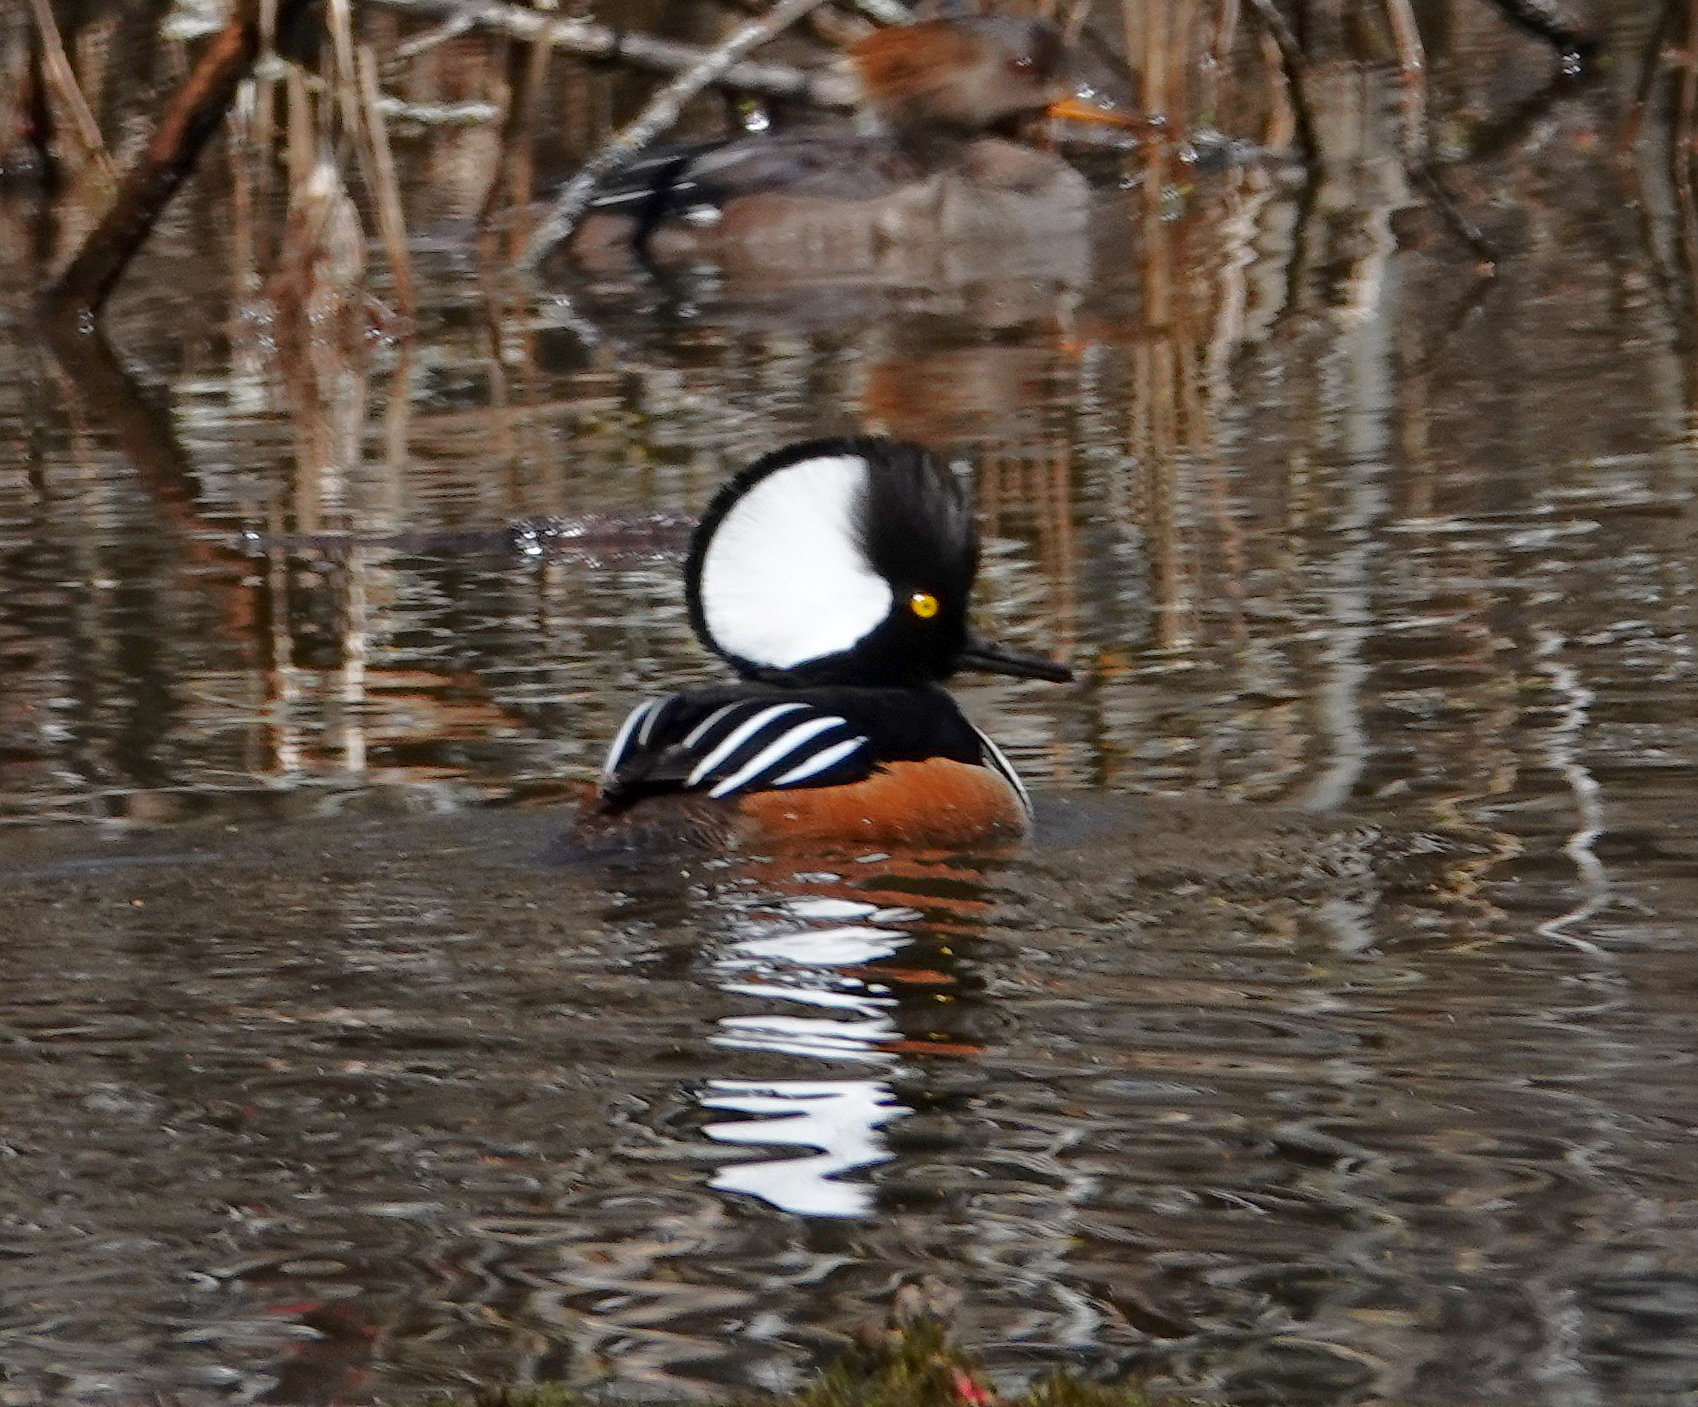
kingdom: Animalia
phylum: Chordata
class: Aves
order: Anseriformes
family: Anatidae
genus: Lophodytes
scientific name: Lophodytes cucullatus
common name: Hooded merganser
